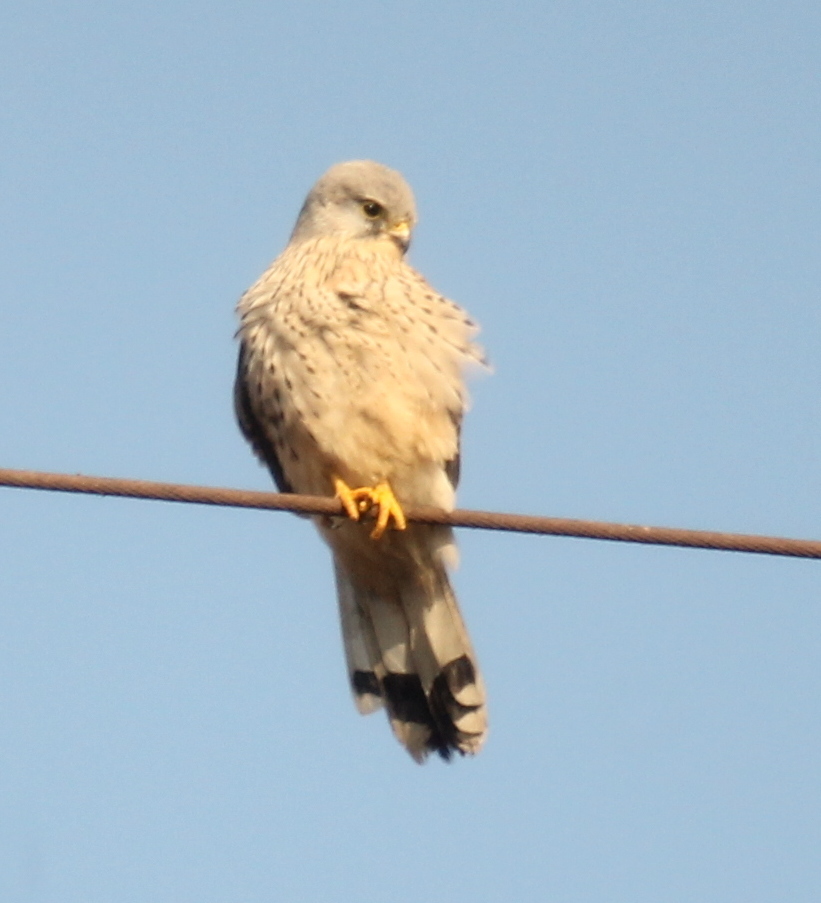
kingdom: Animalia
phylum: Chordata
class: Aves
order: Falconiformes
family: Falconidae
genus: Falco
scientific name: Falco tinnunculus
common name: Common kestrel
